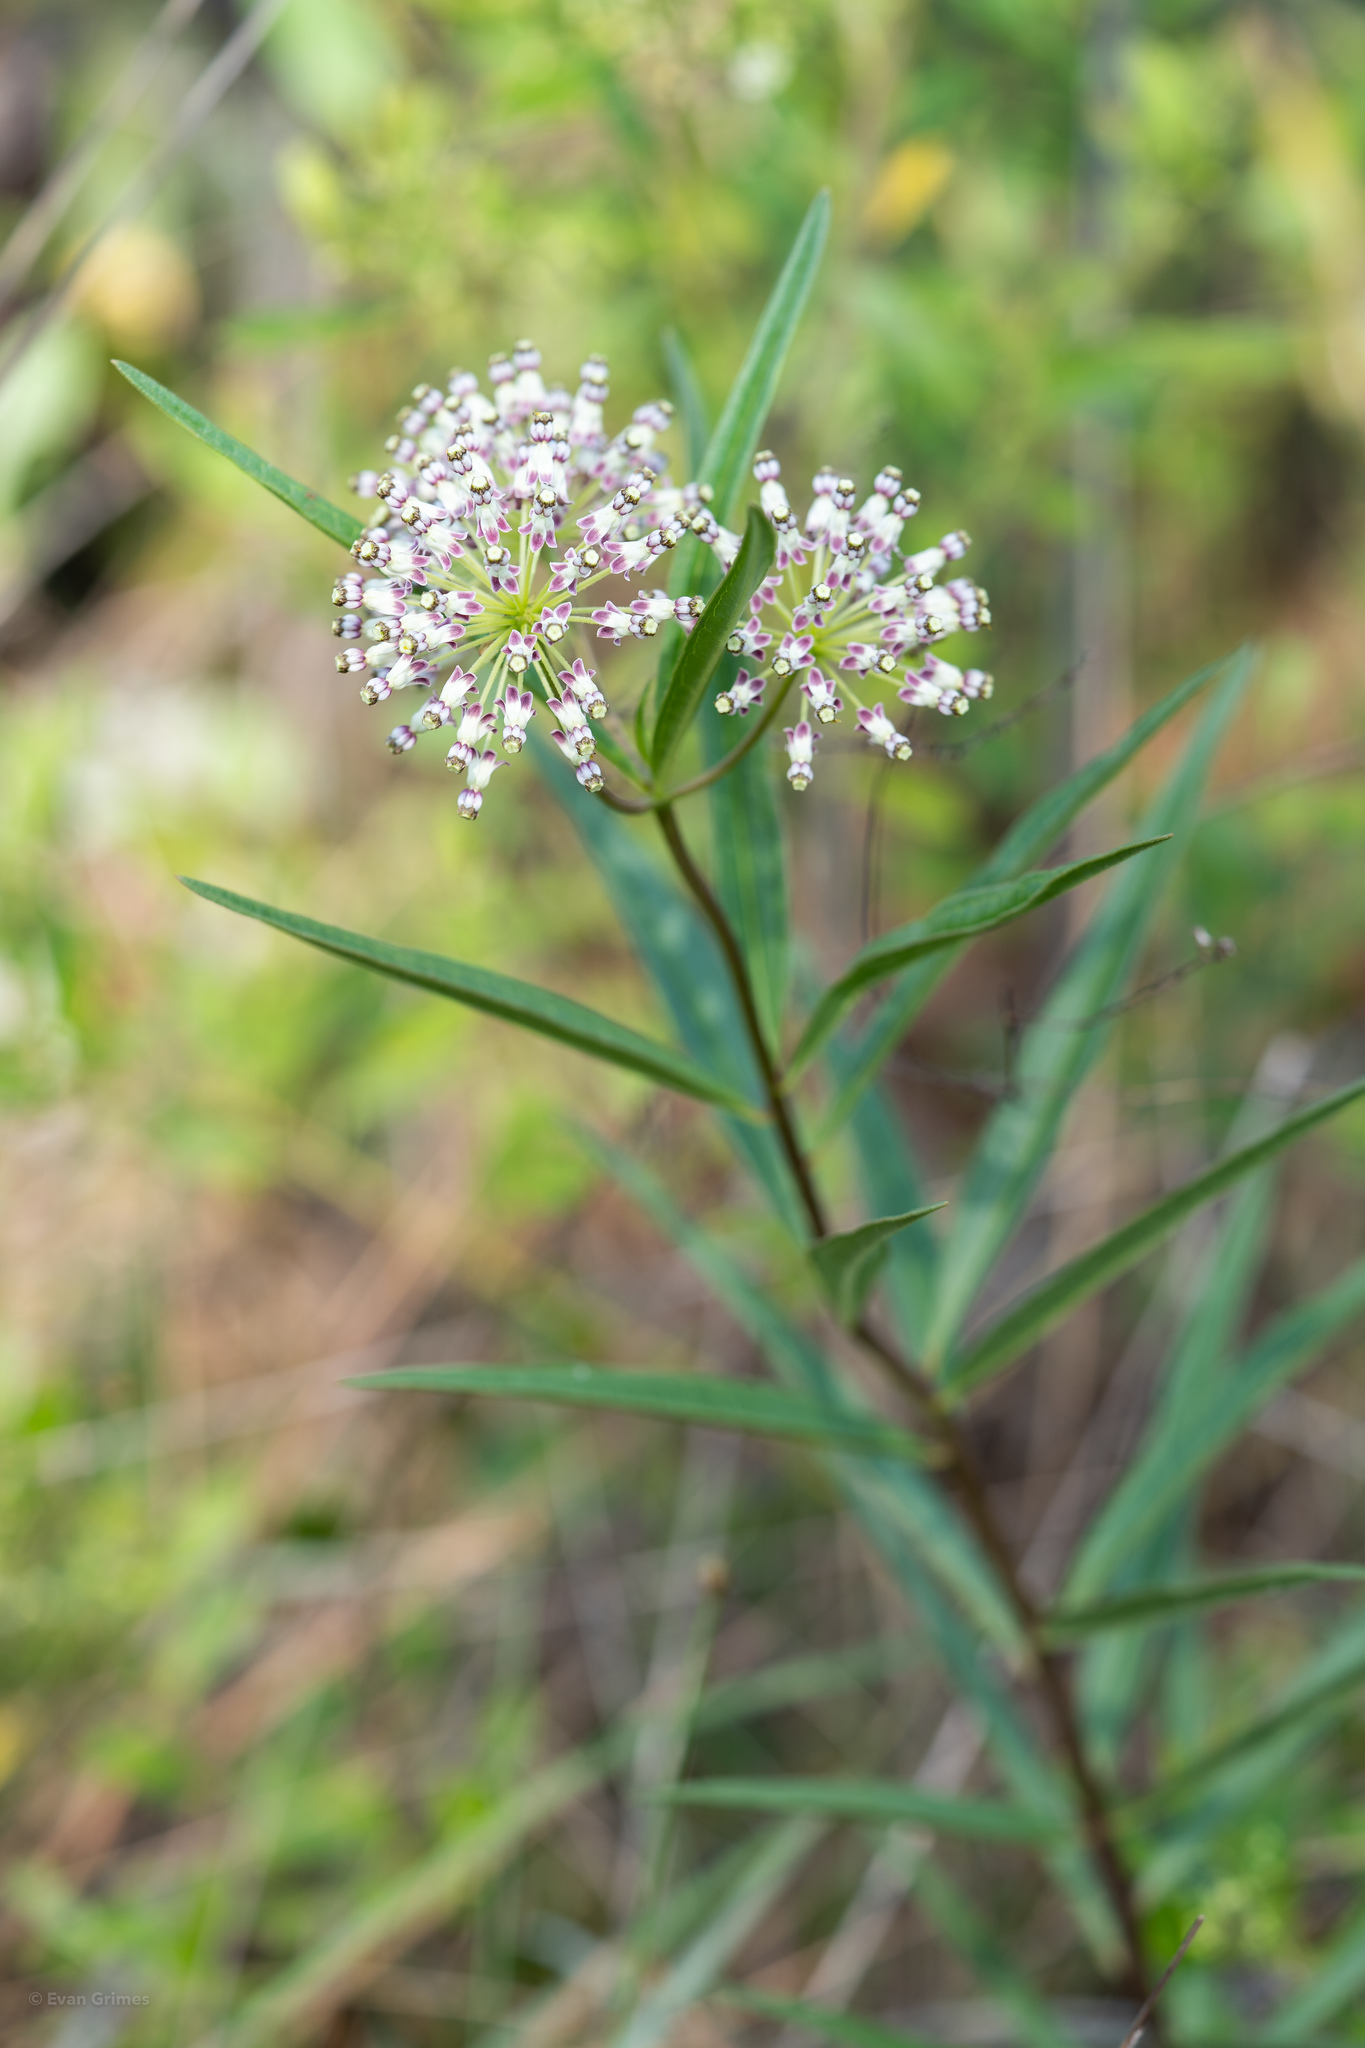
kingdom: Plantae
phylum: Tracheophyta
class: Magnoliopsida
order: Gentianales
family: Apocynaceae
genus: Asclepias
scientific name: Asclepias longifolia
